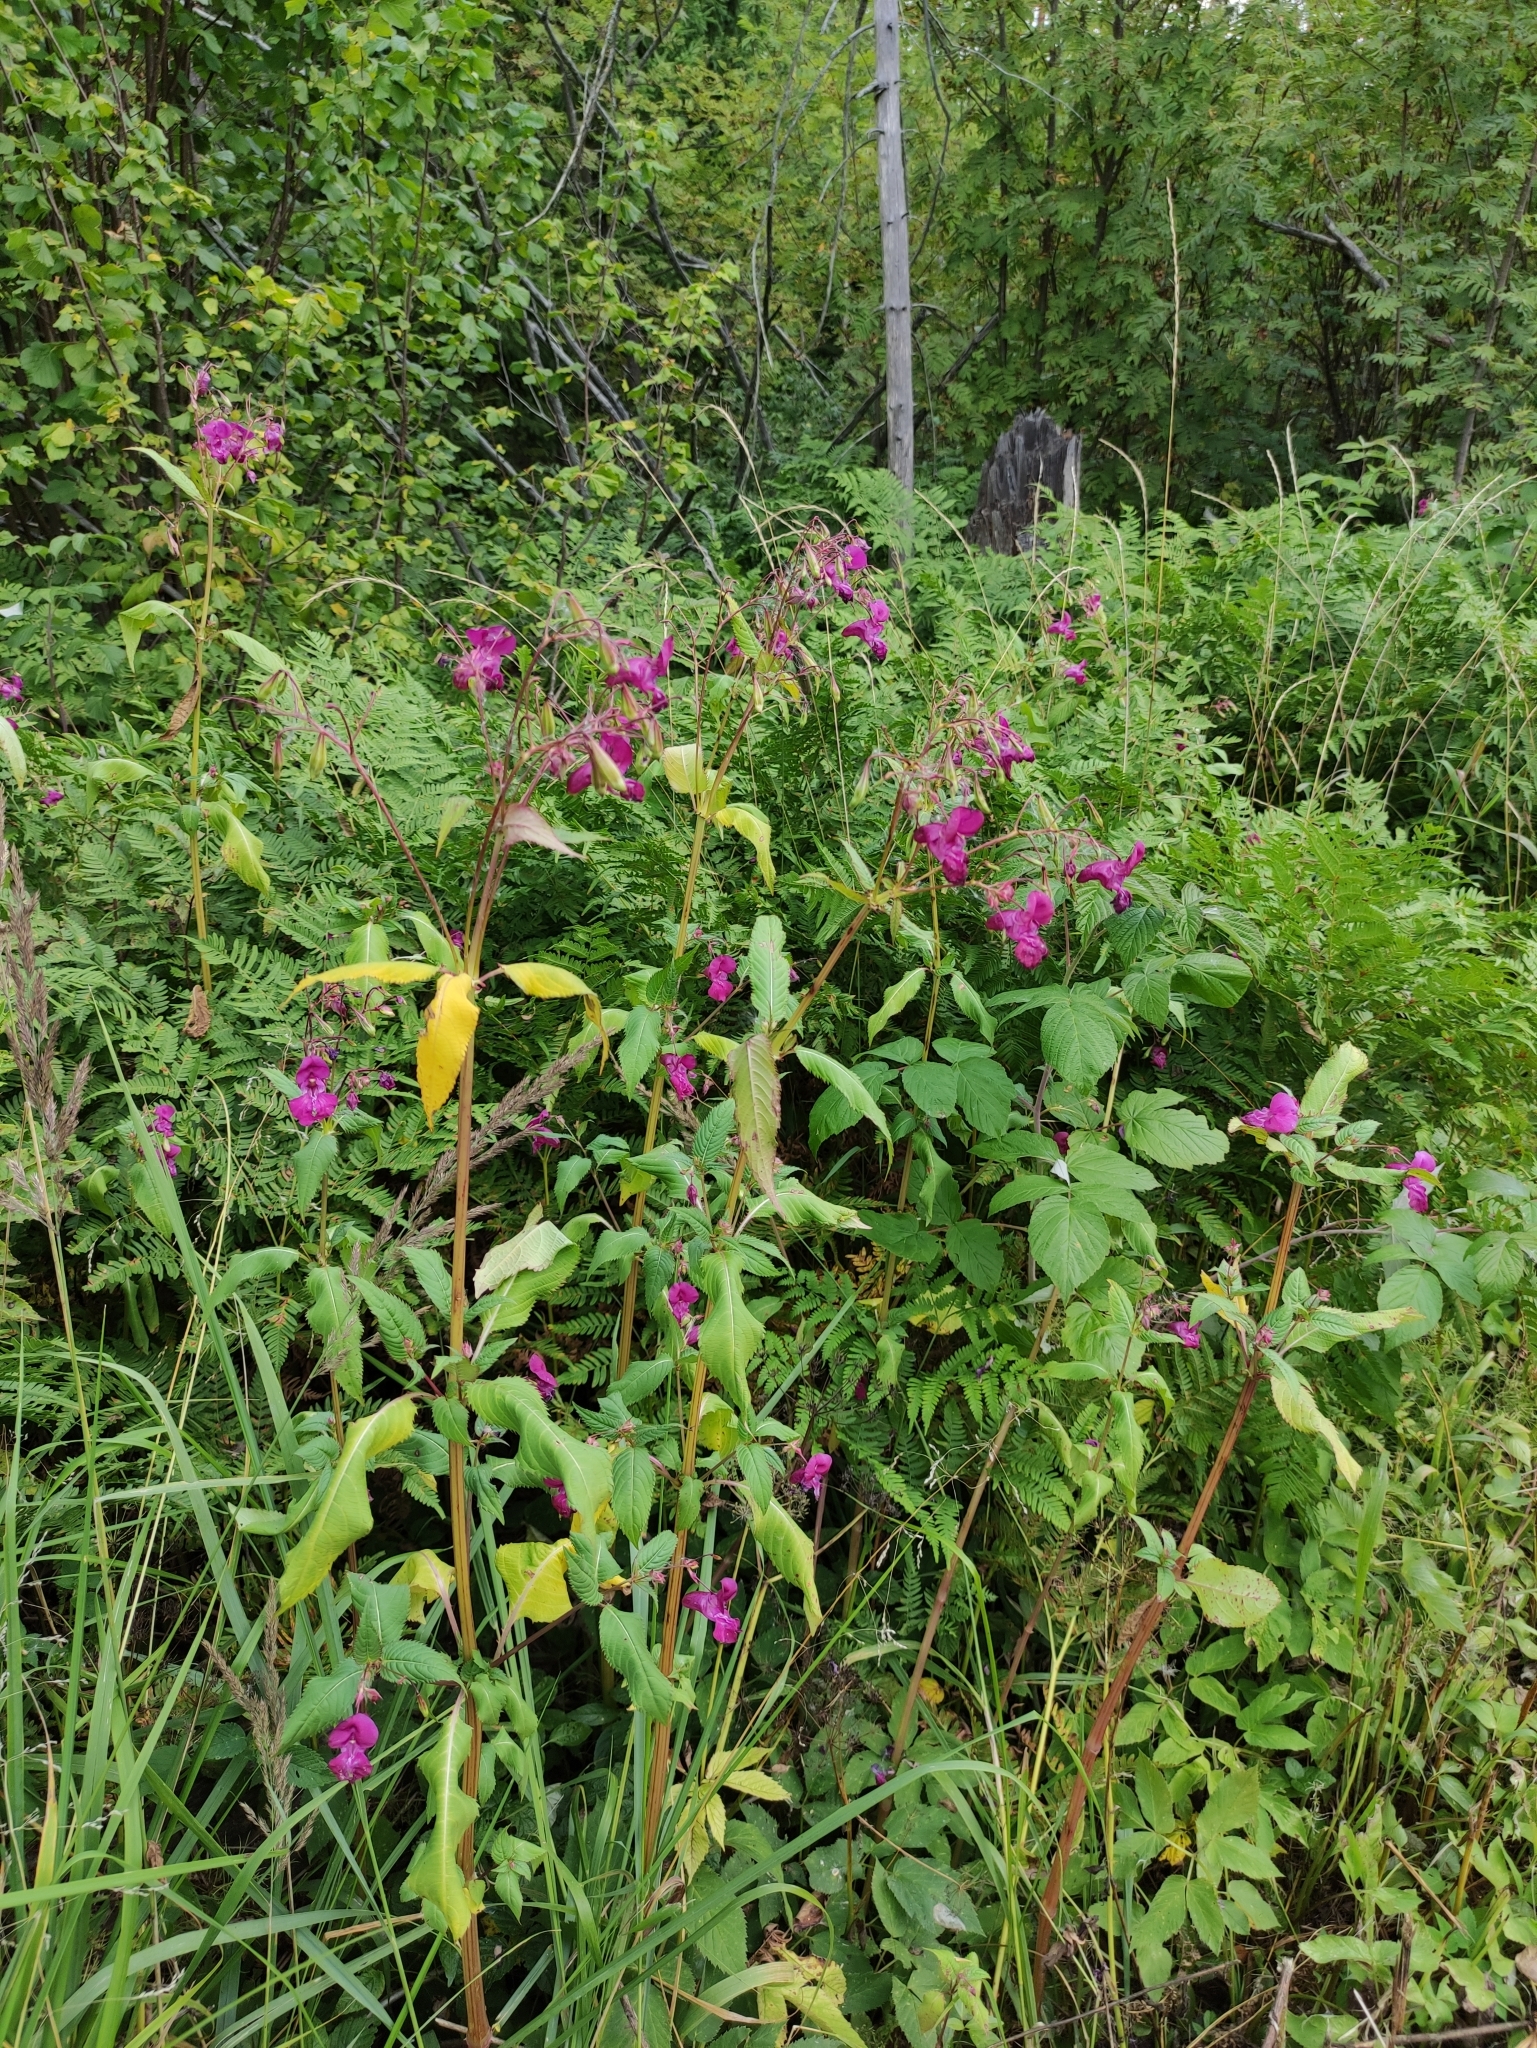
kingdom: Plantae
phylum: Tracheophyta
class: Magnoliopsida
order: Ericales
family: Balsaminaceae
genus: Impatiens
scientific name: Impatiens glandulifera
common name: Himalayan balsam
